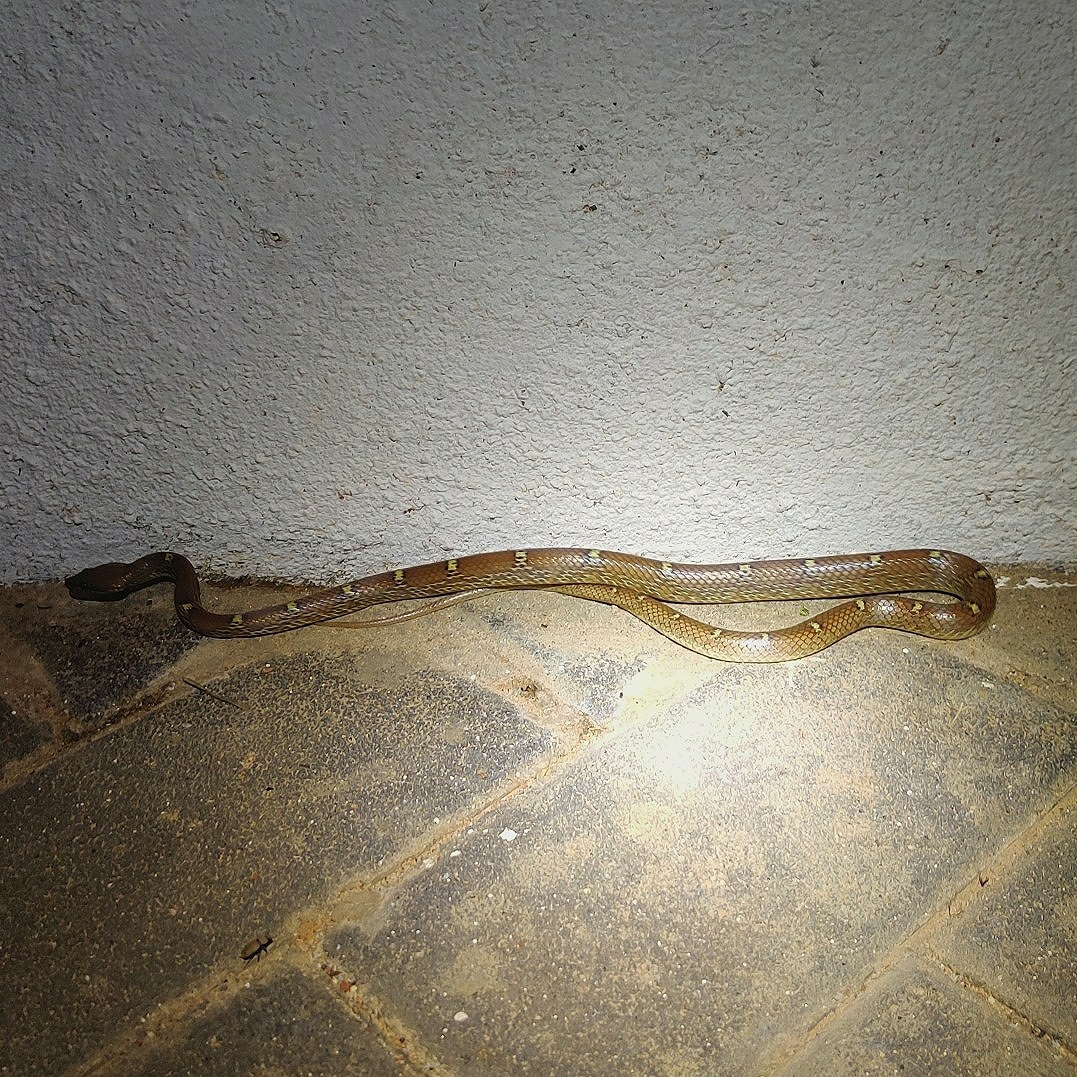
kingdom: Animalia
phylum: Chordata
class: Squamata
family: Colubridae
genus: Lycodon
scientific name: Lycodon fasciolatus
